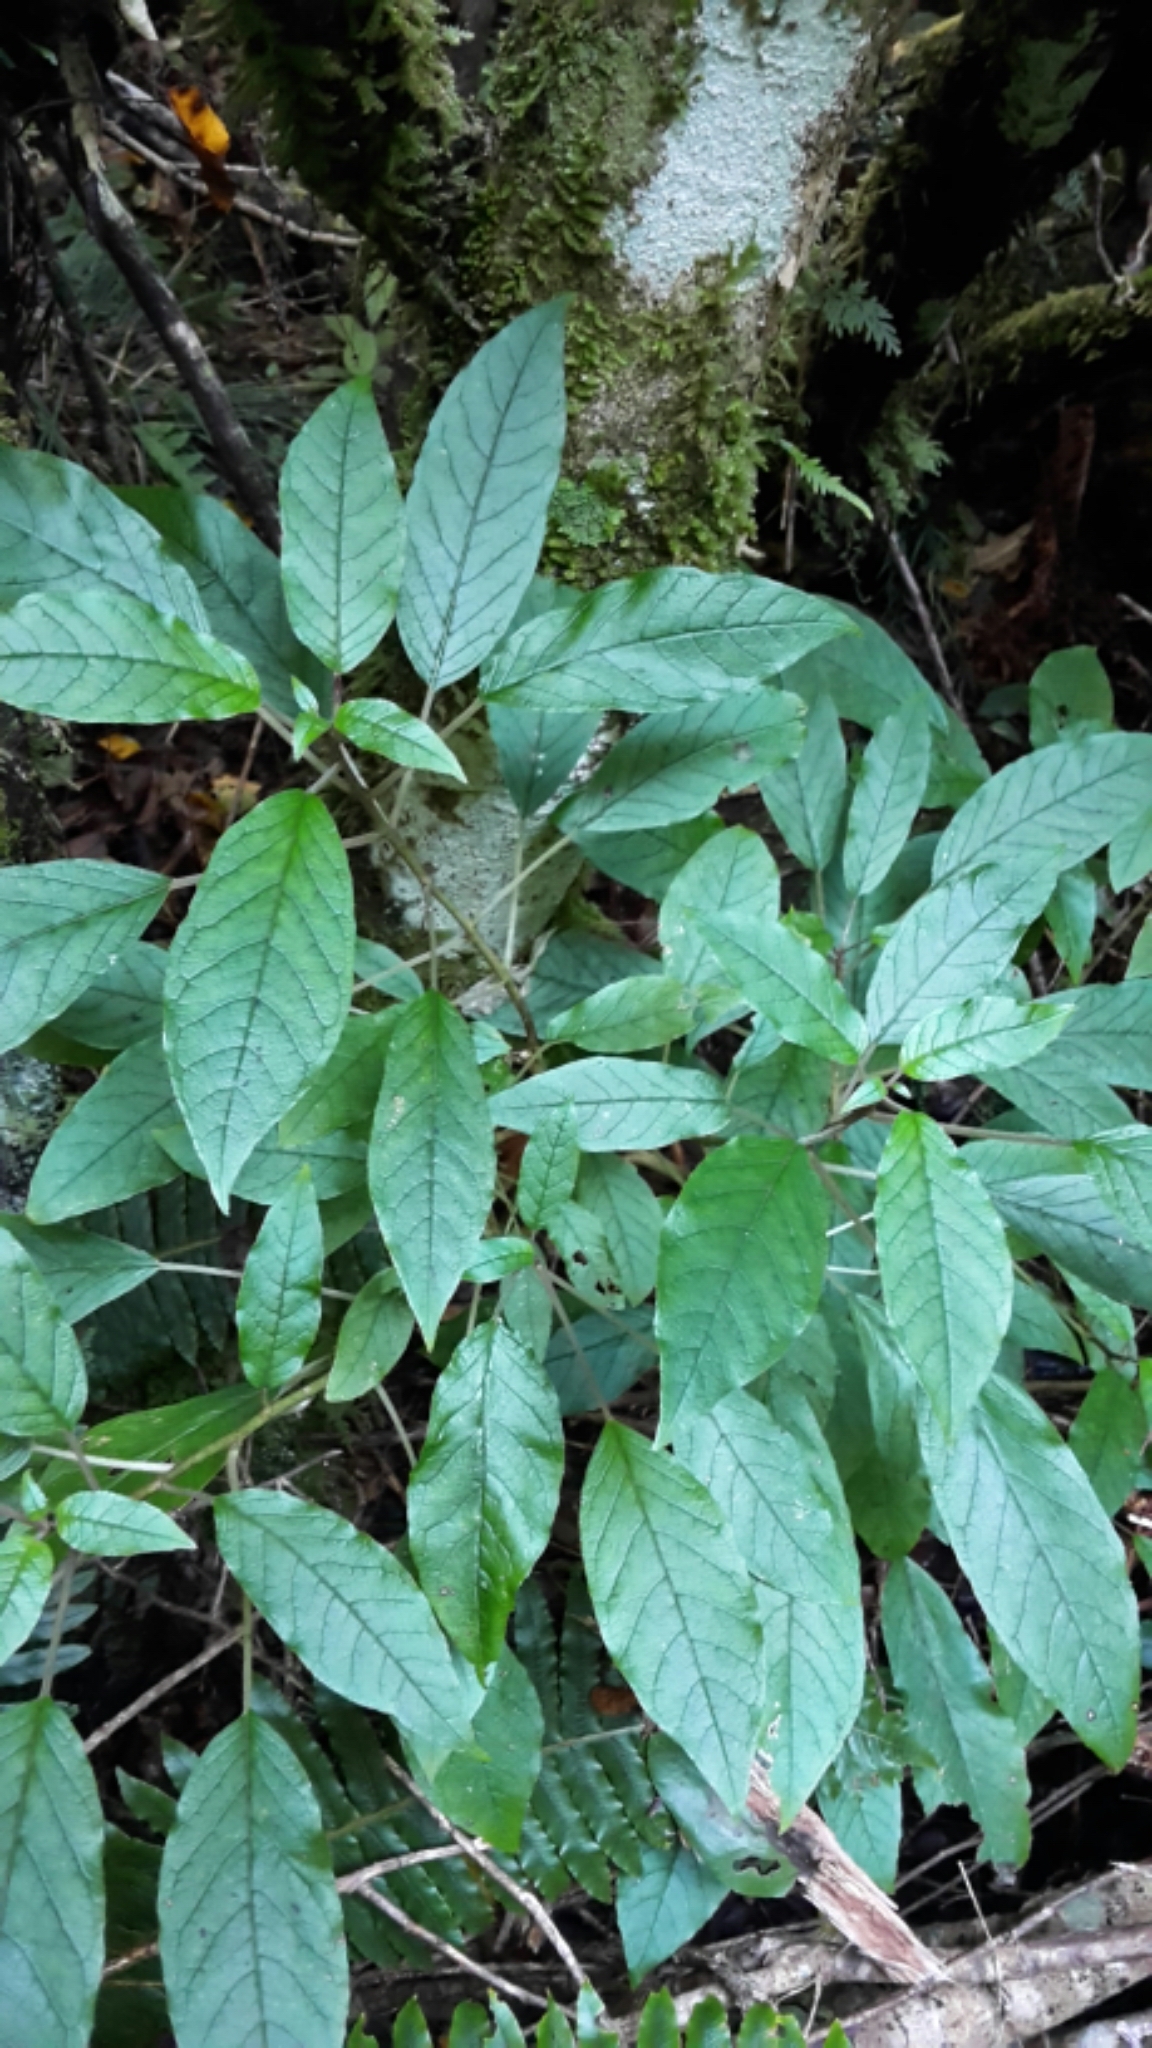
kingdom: Plantae
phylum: Tracheophyta
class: Magnoliopsida
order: Myrtales
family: Onagraceae
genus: Fuchsia
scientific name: Fuchsia excorticata
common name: Tree fuchsia
